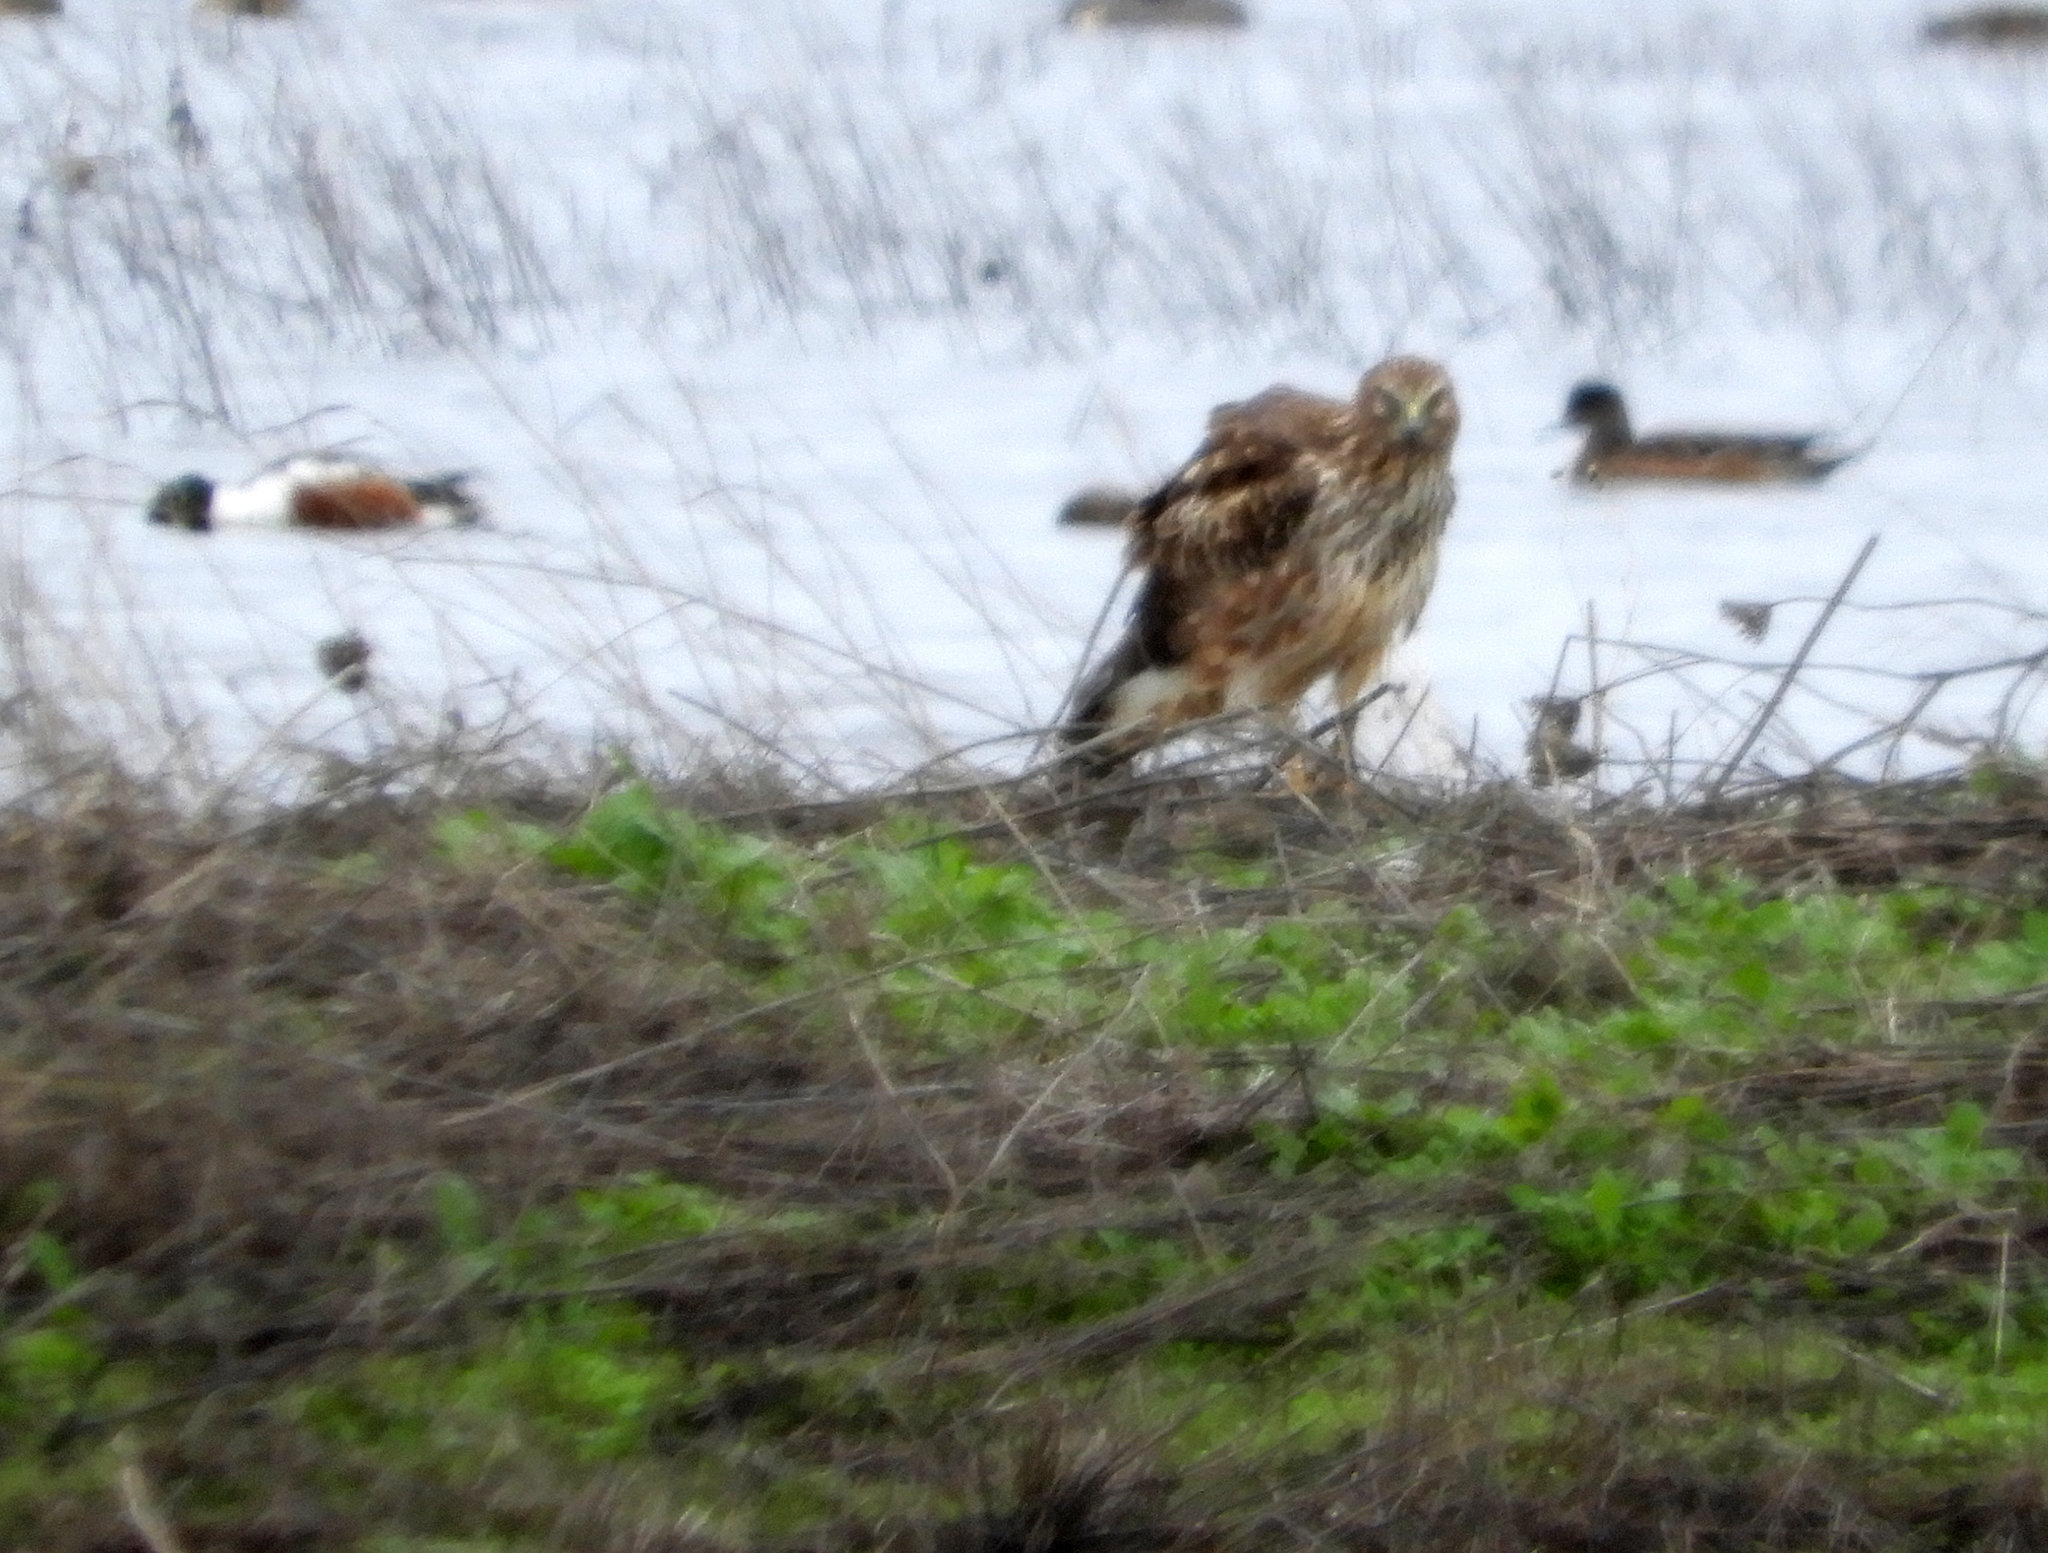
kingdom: Animalia
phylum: Chordata
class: Aves
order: Accipitriformes
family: Accipitridae
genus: Circus
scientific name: Circus cyaneus
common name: Hen harrier
